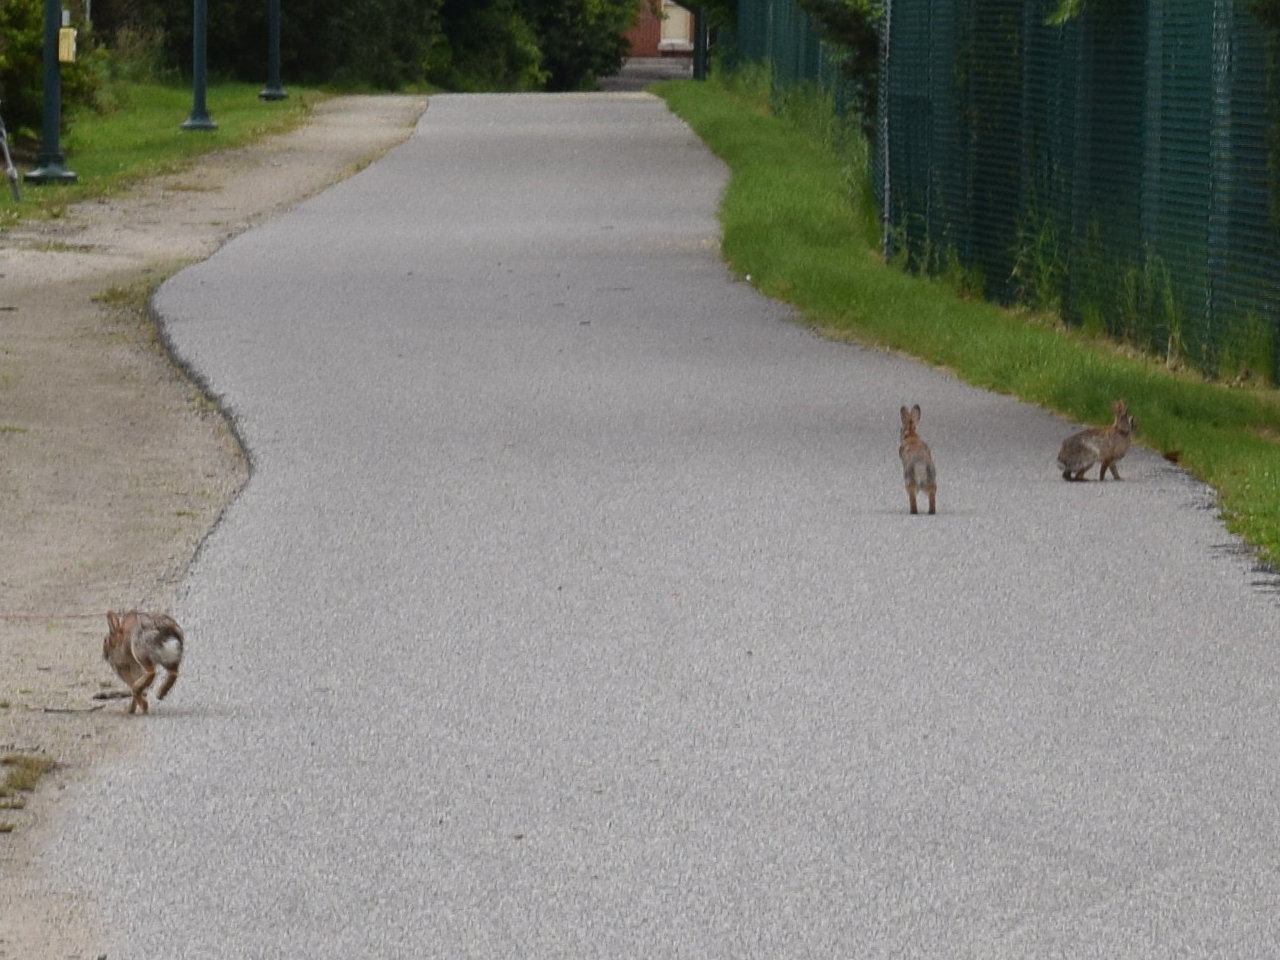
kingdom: Animalia
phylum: Chordata
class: Mammalia
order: Lagomorpha
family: Leporidae
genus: Sylvilagus
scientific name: Sylvilagus floridanus
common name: Eastern cottontail
